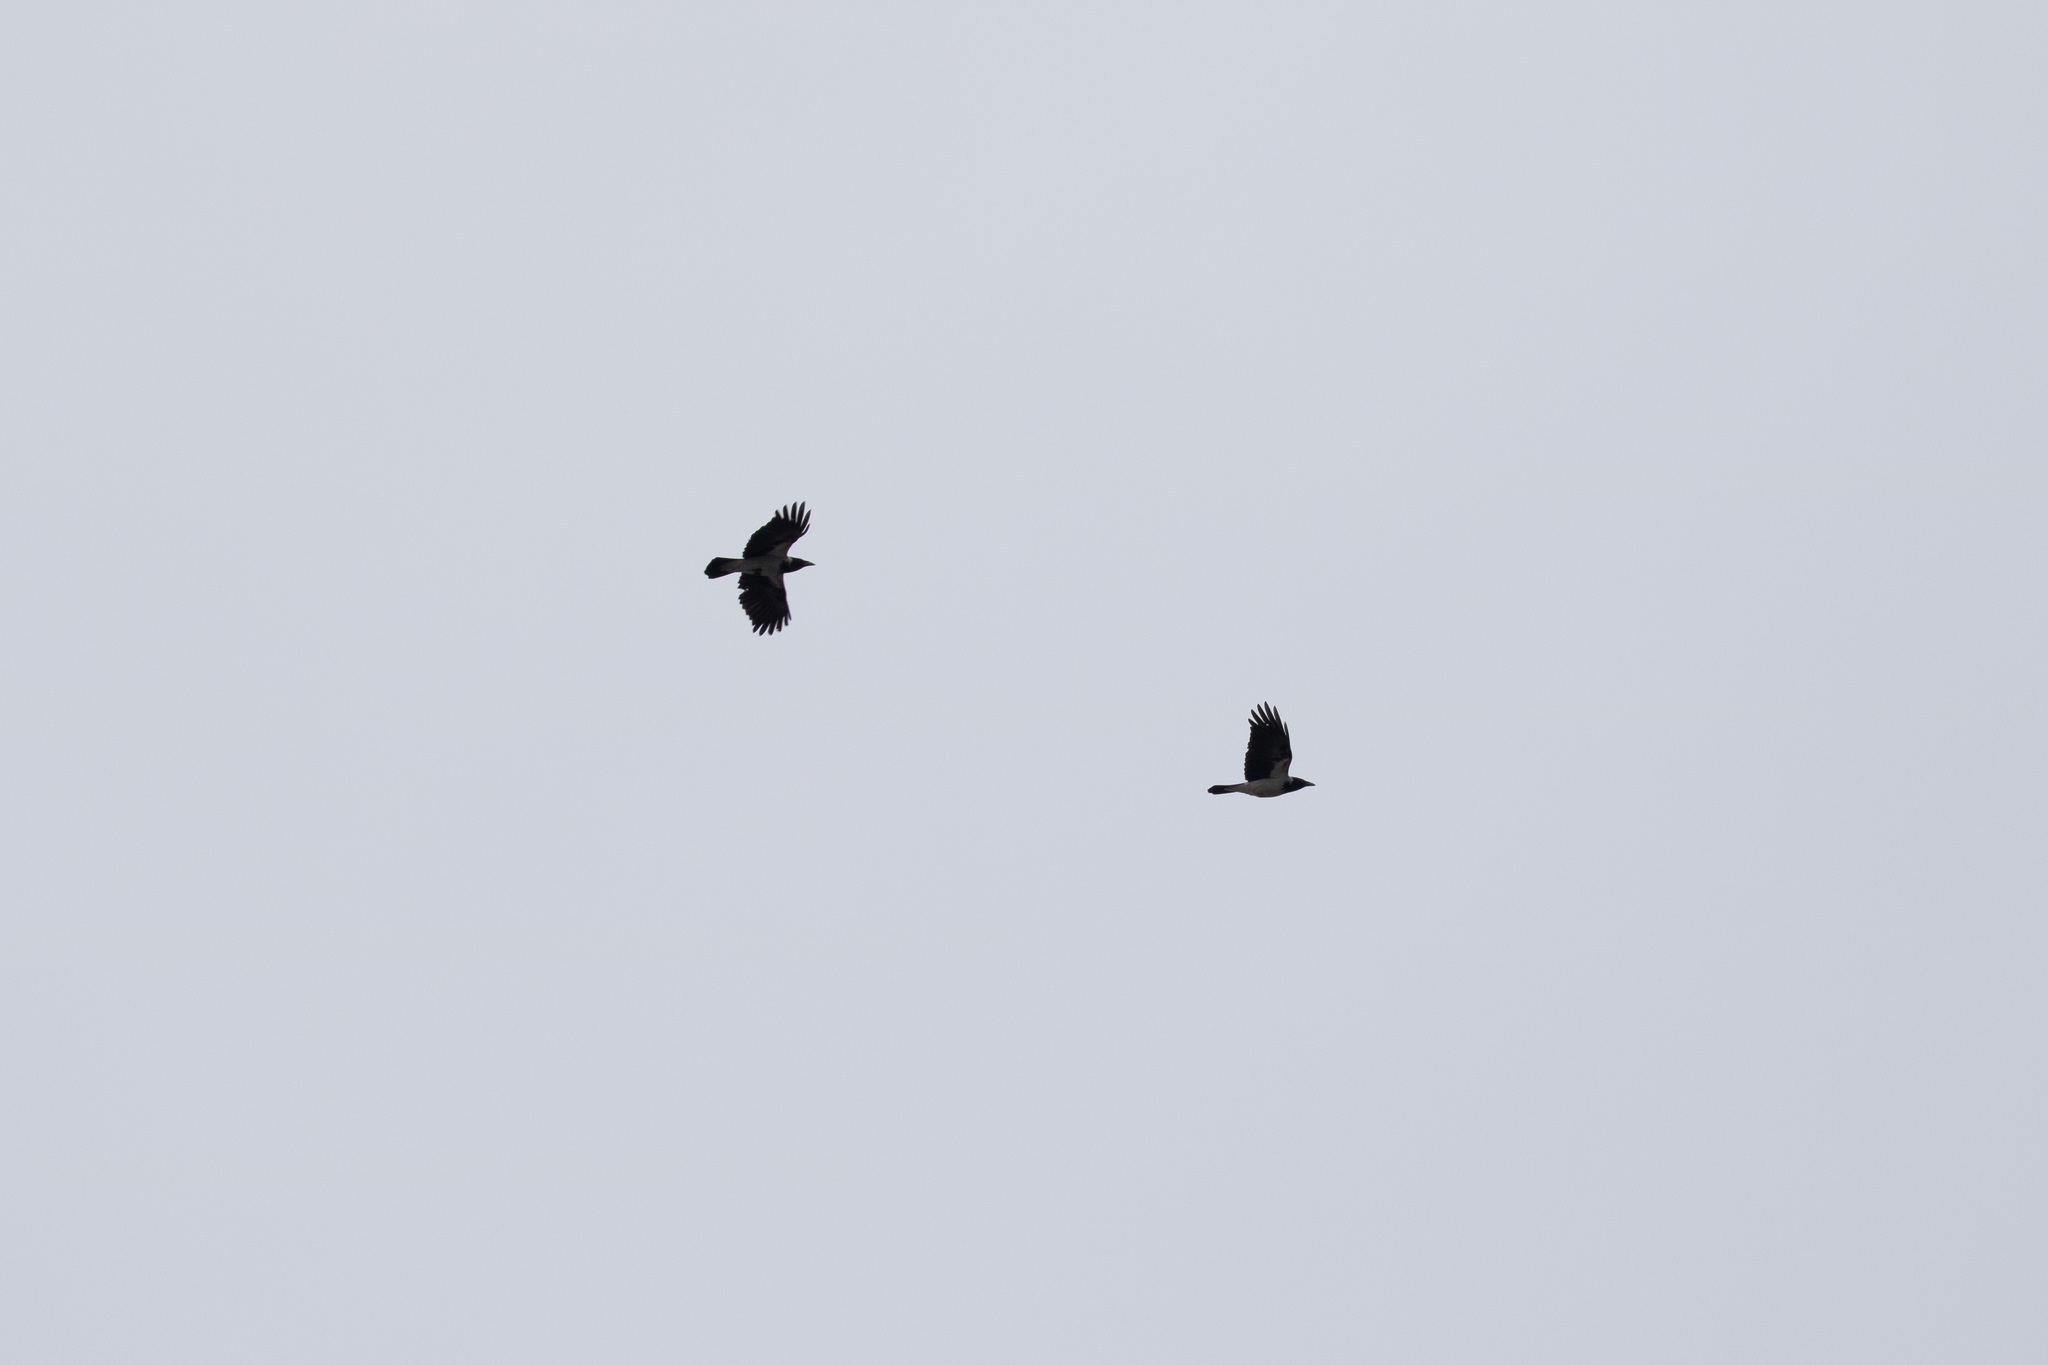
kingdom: Animalia
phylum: Chordata
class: Aves
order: Passeriformes
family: Corvidae
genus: Corvus
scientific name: Corvus cornix
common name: Hooded crow
